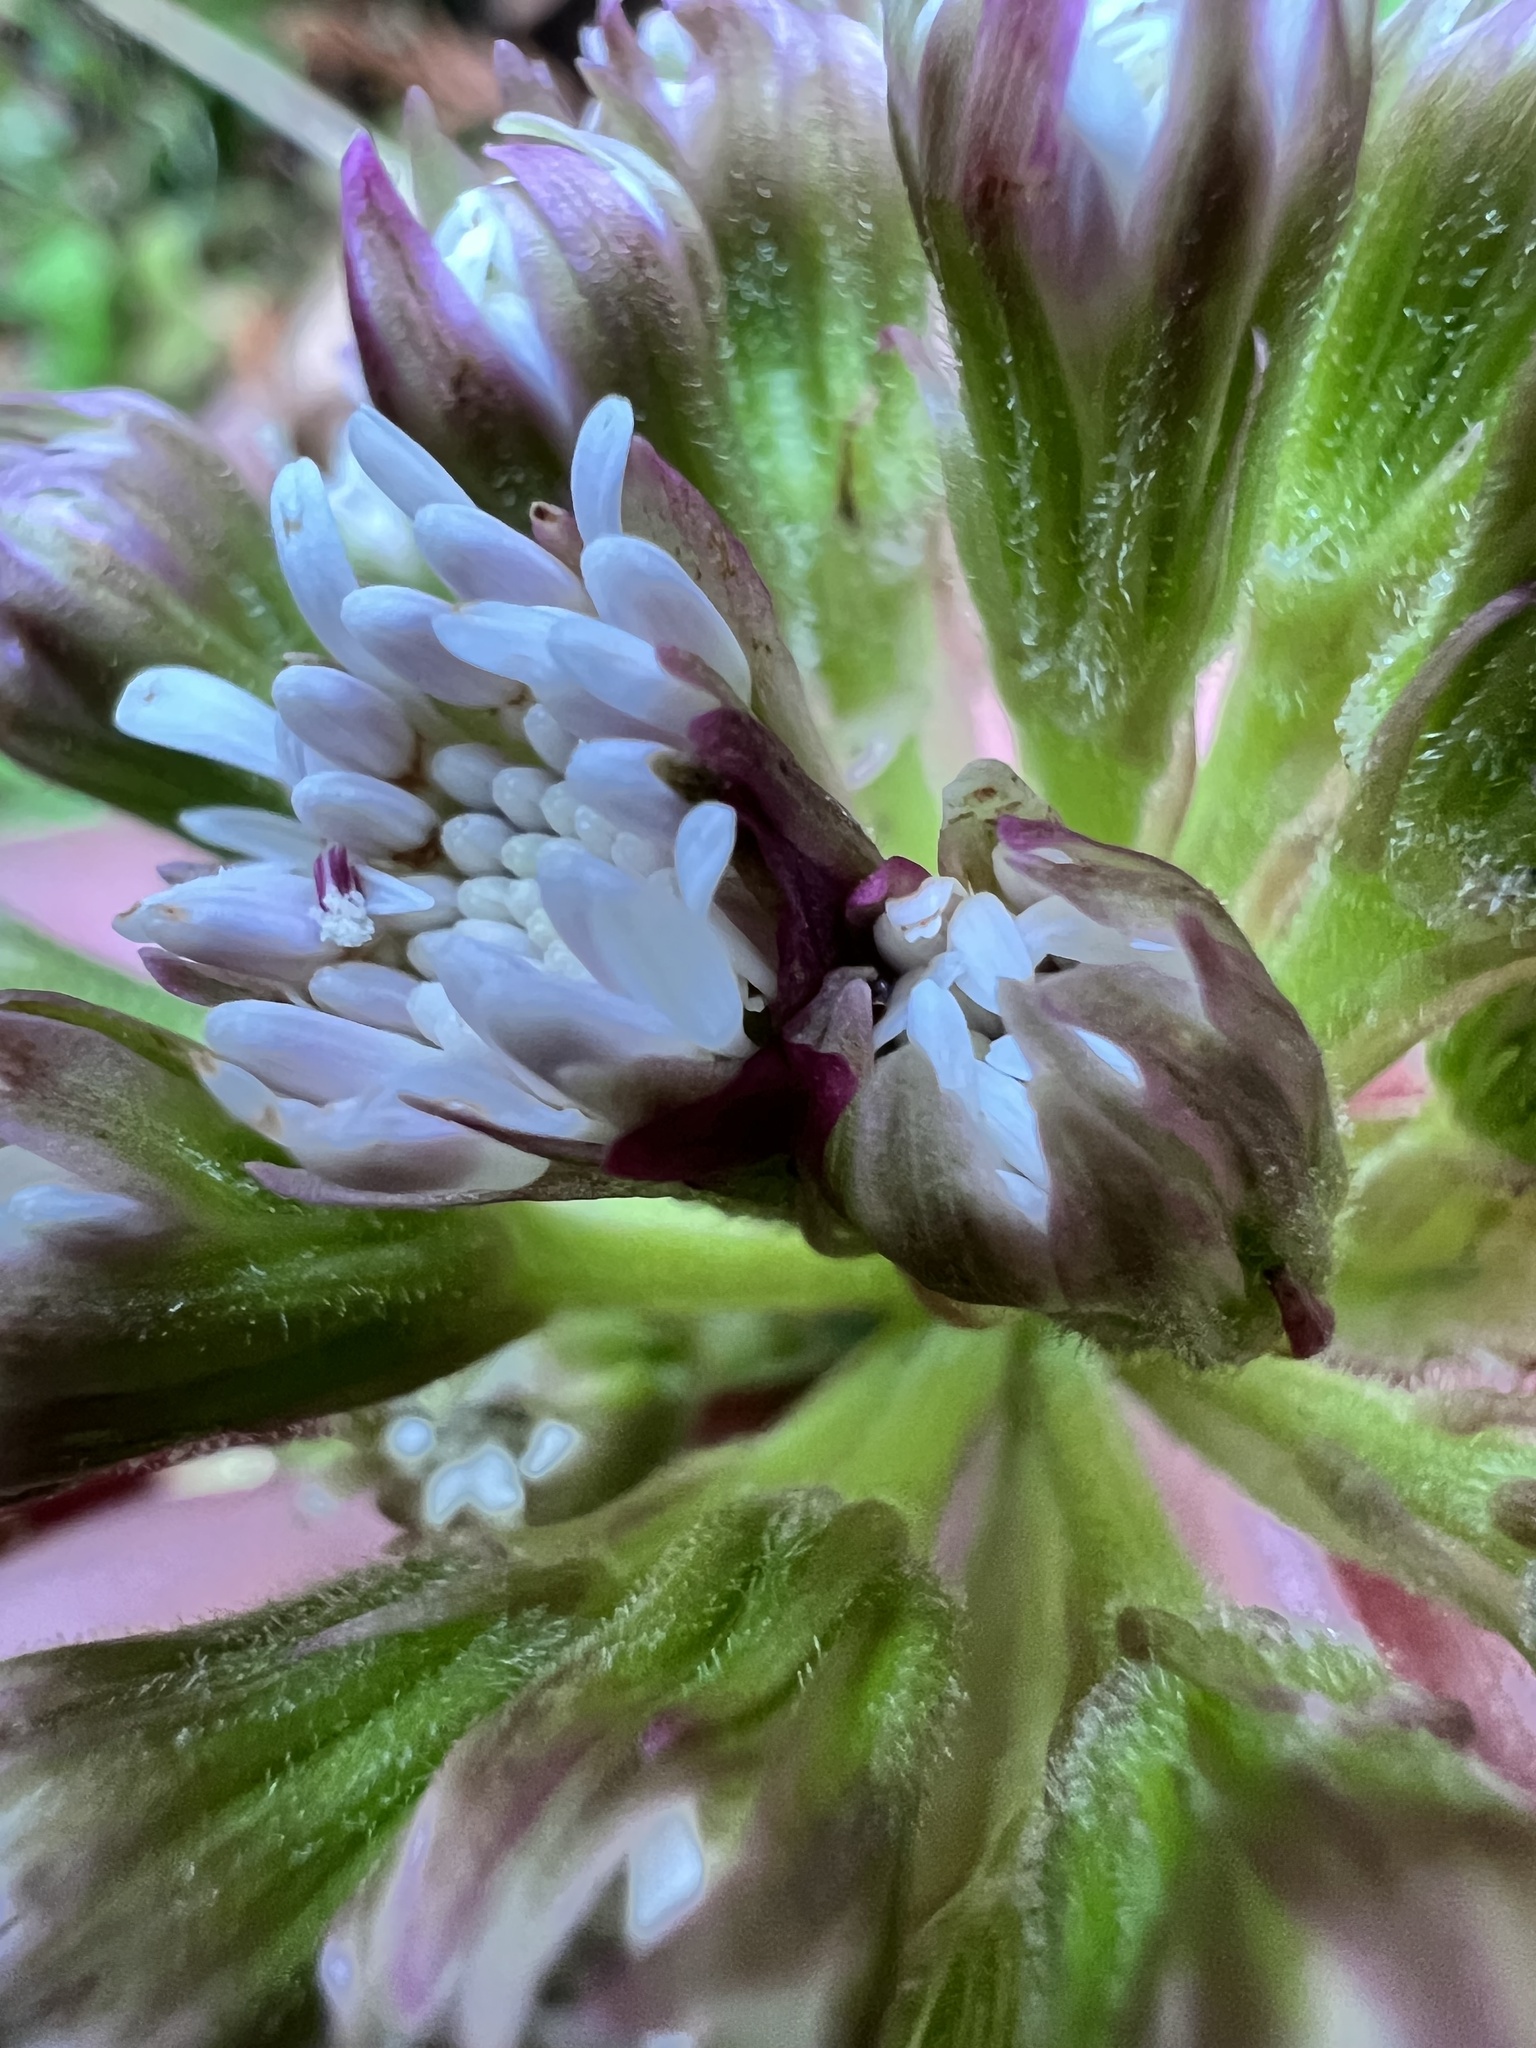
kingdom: Plantae
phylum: Tracheophyta
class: Magnoliopsida
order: Asterales
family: Asteraceae
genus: Petasites
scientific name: Petasites frigidus
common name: Arctic butterbur
